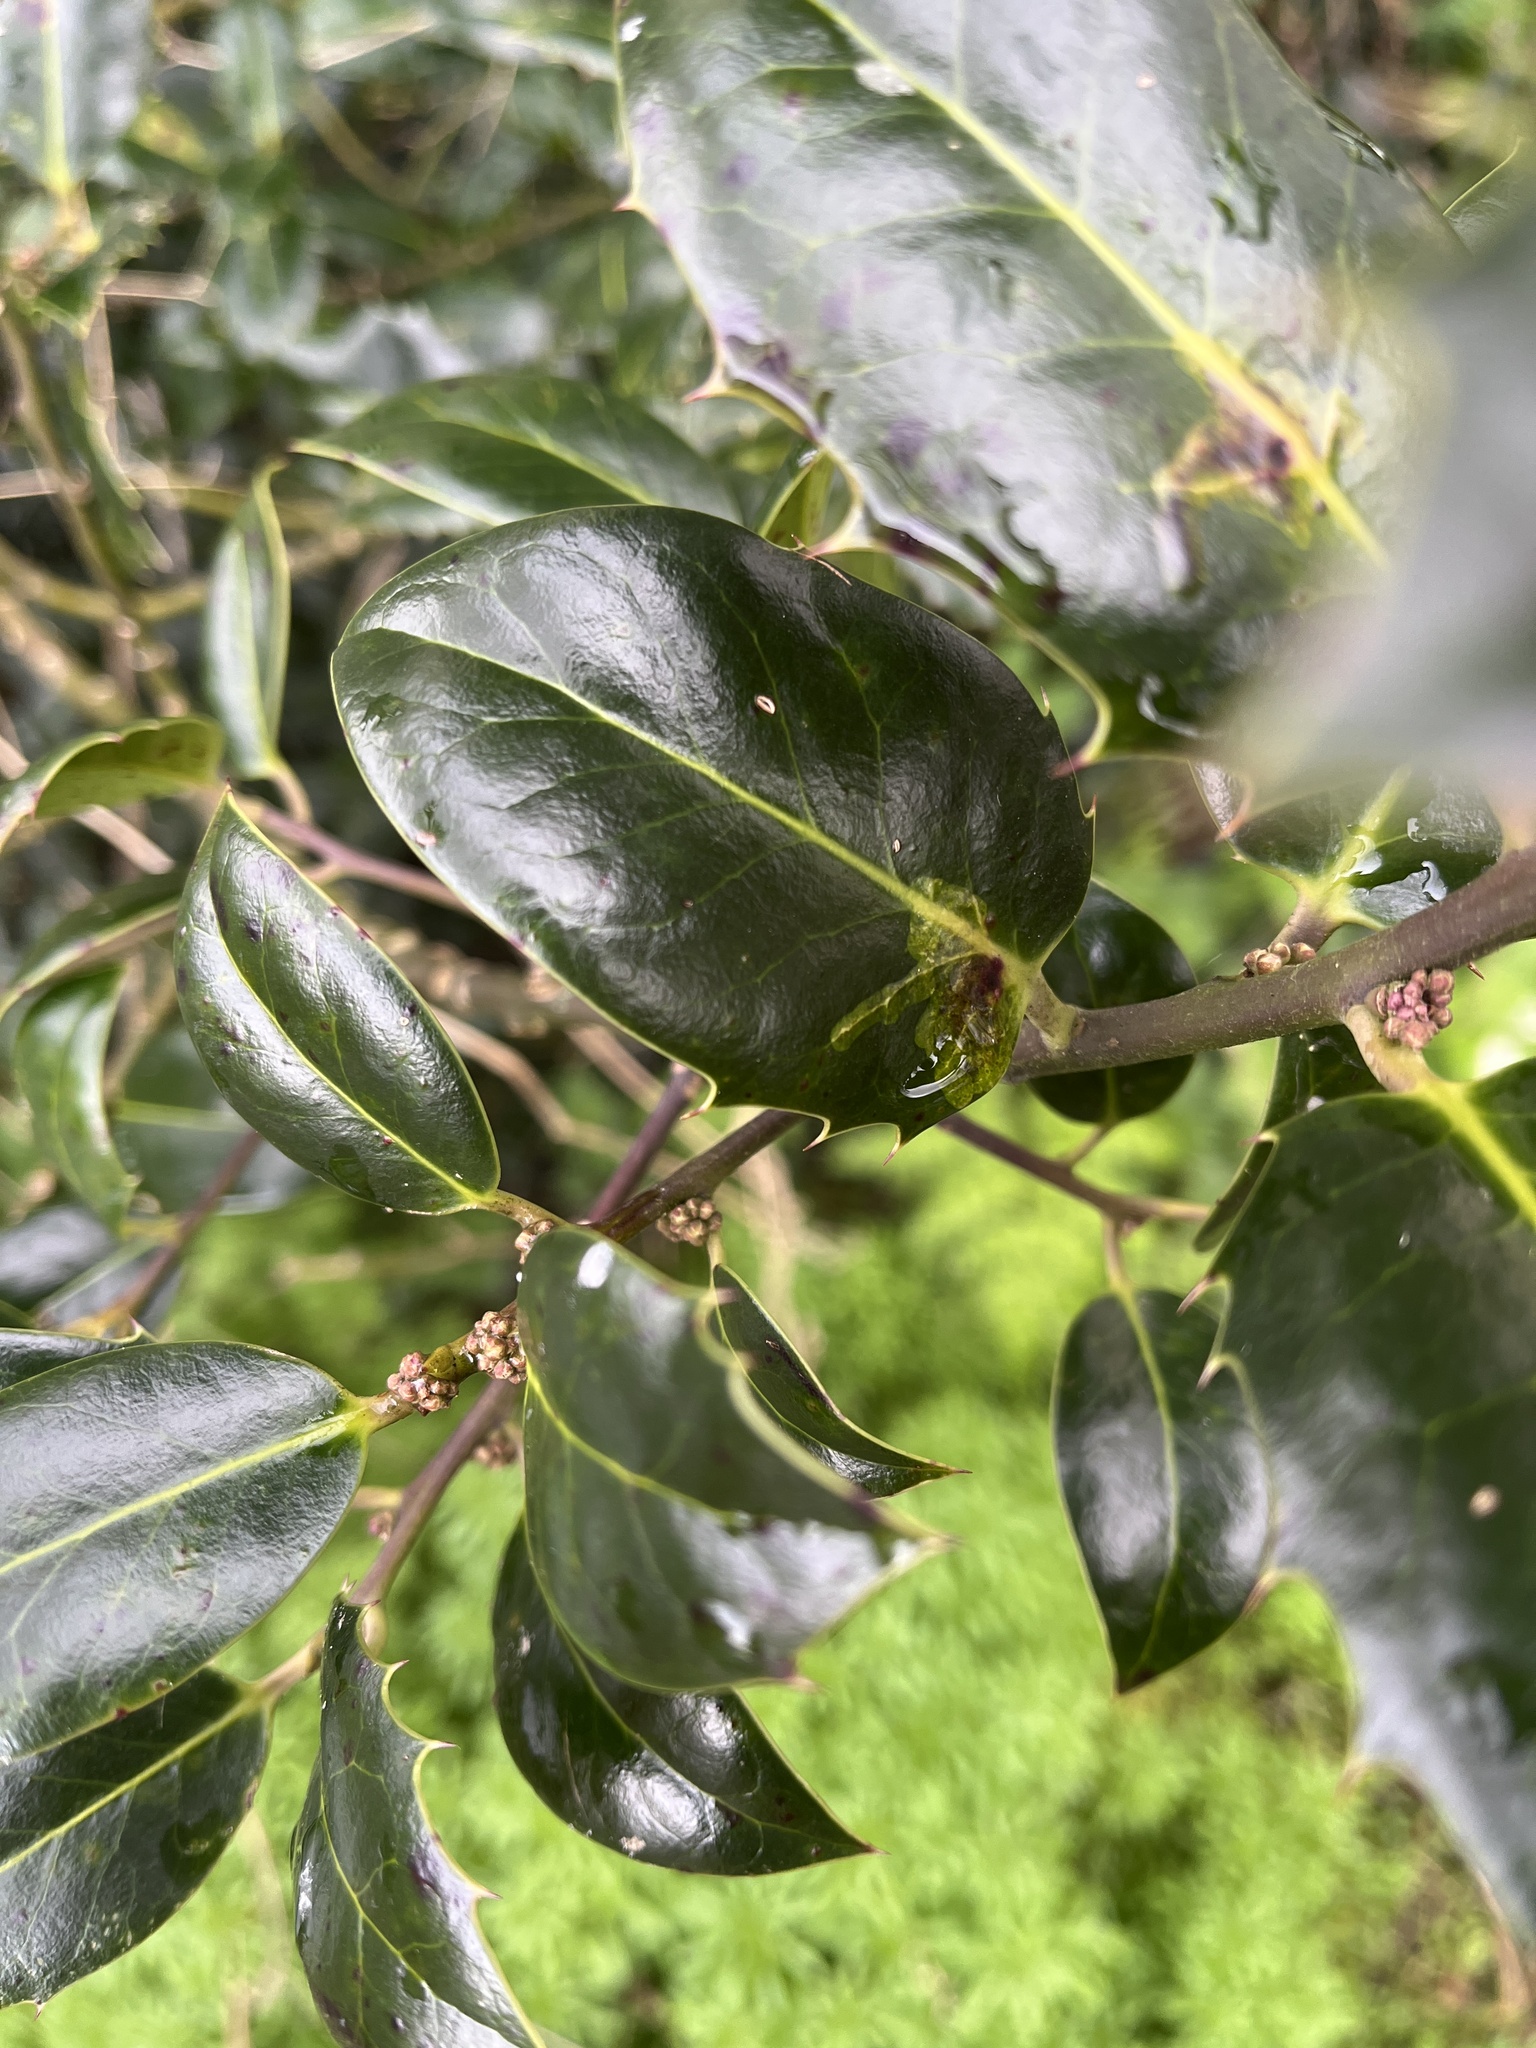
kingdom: Animalia
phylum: Arthropoda
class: Insecta
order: Diptera
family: Agromyzidae
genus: Phytomyza
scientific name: Phytomyza ilicis
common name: Holly leafminer
